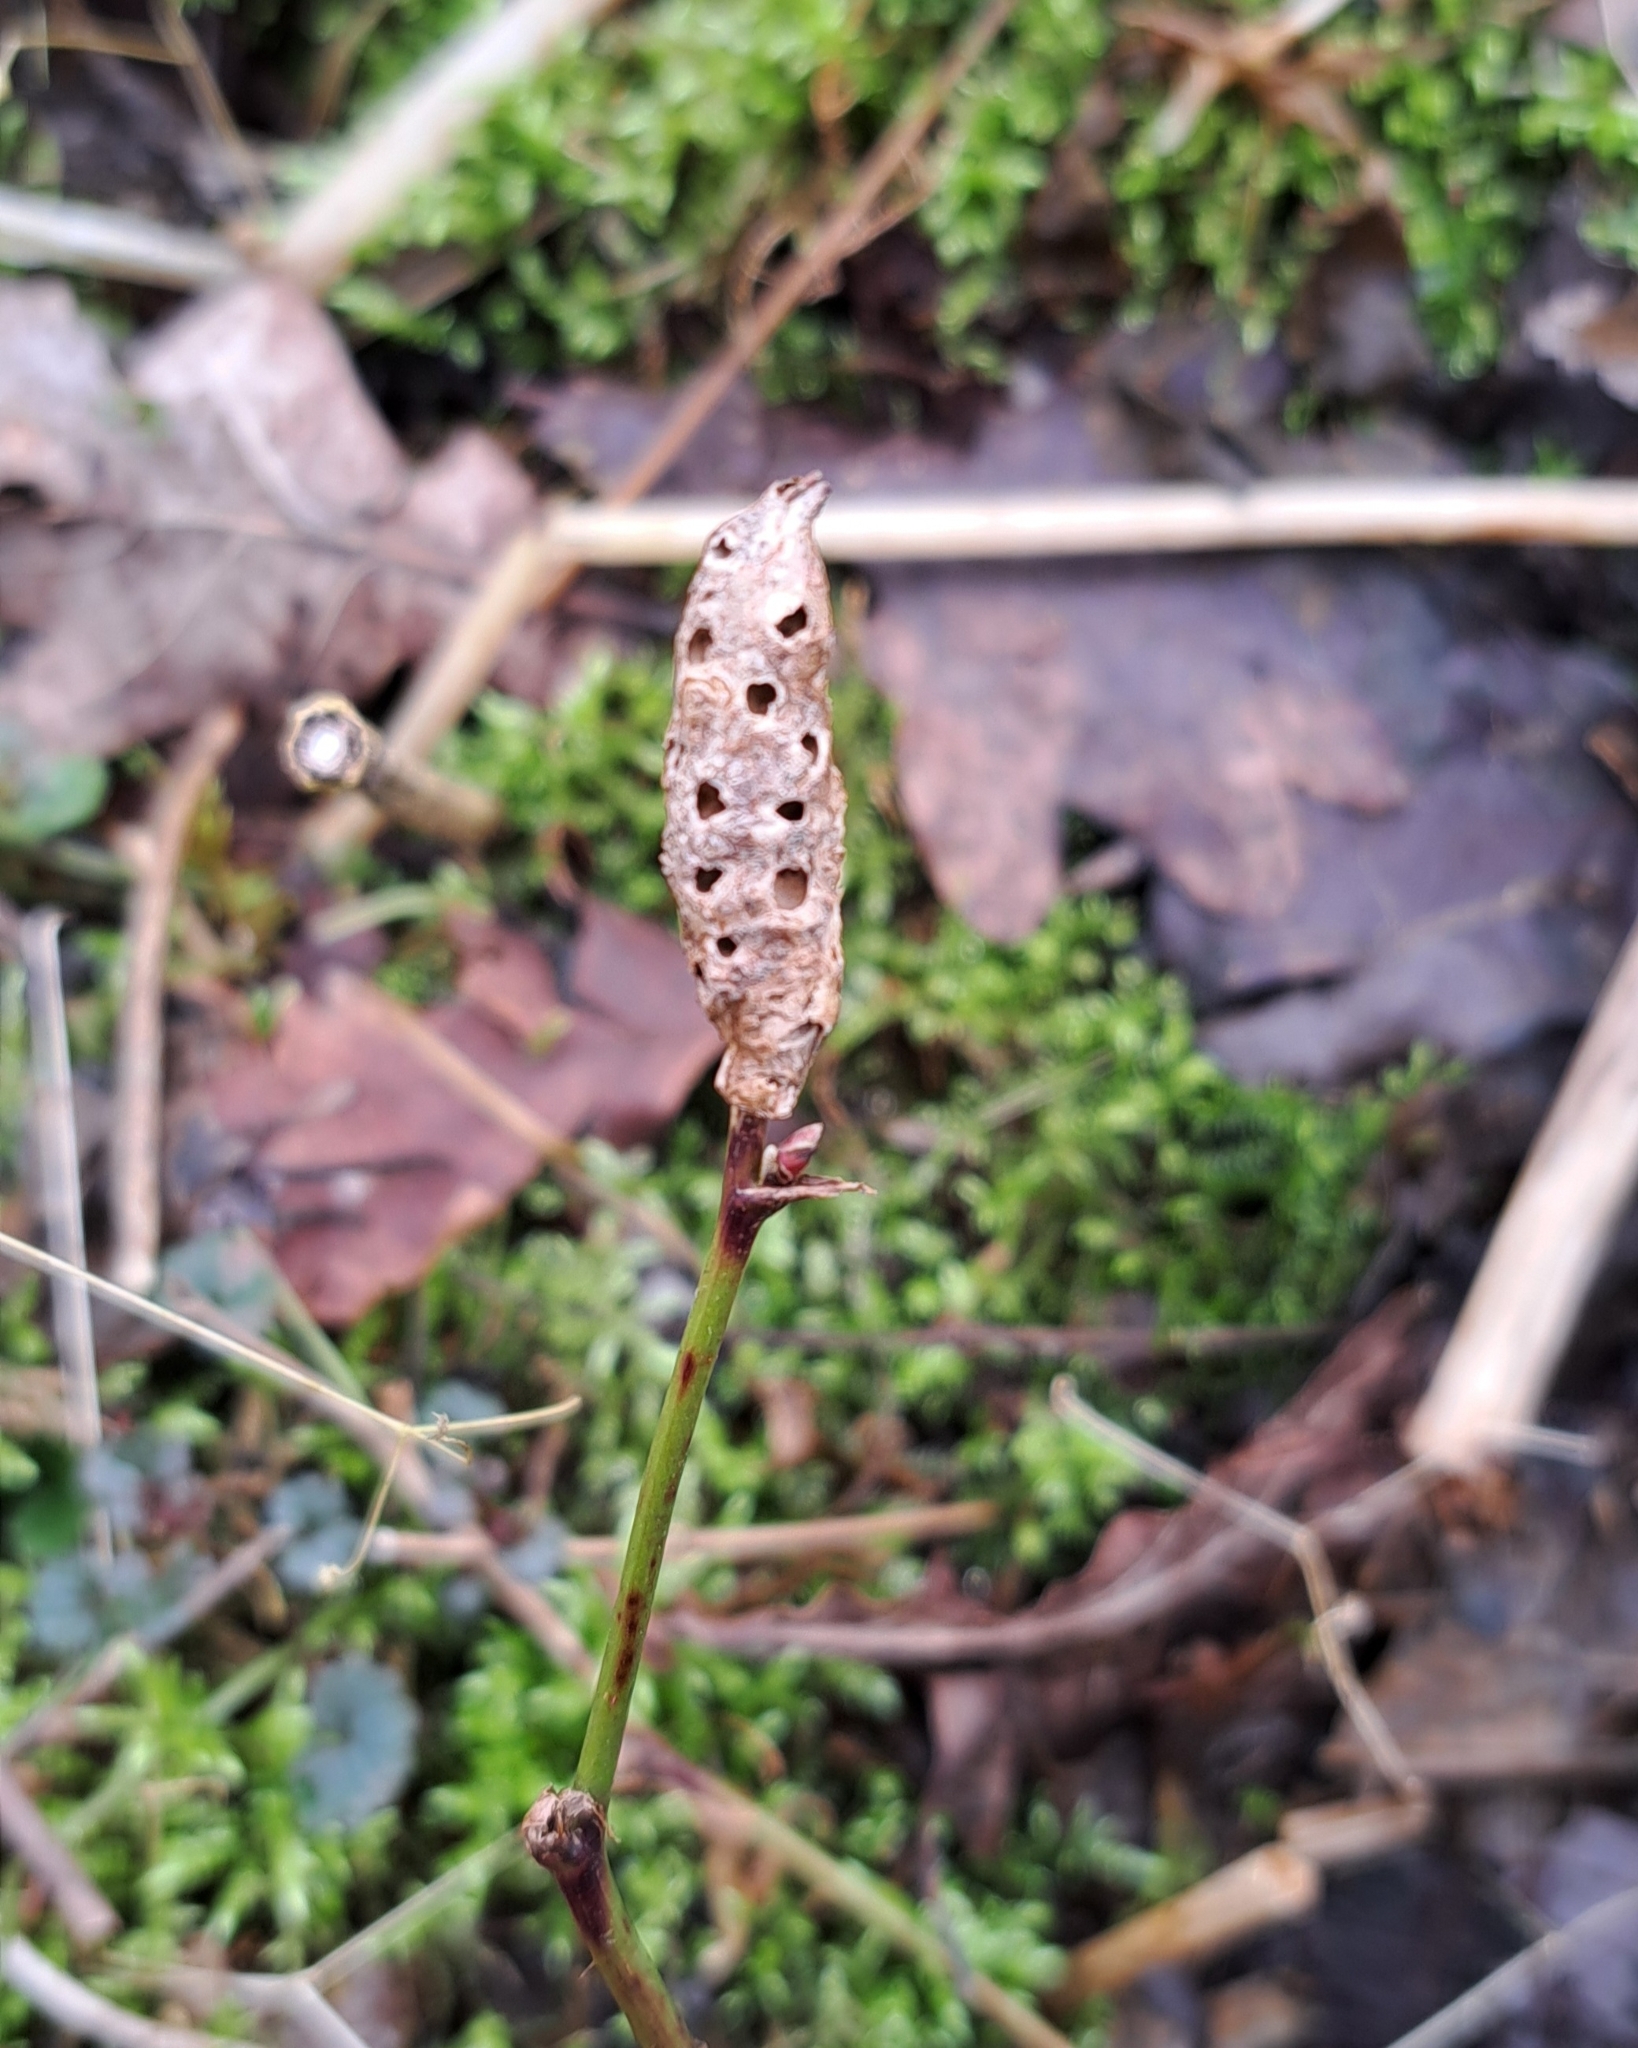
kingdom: Animalia
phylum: Arthropoda
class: Insecta
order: Hymenoptera
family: Cynipidae
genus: Diastrophus
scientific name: Diastrophus rubi
